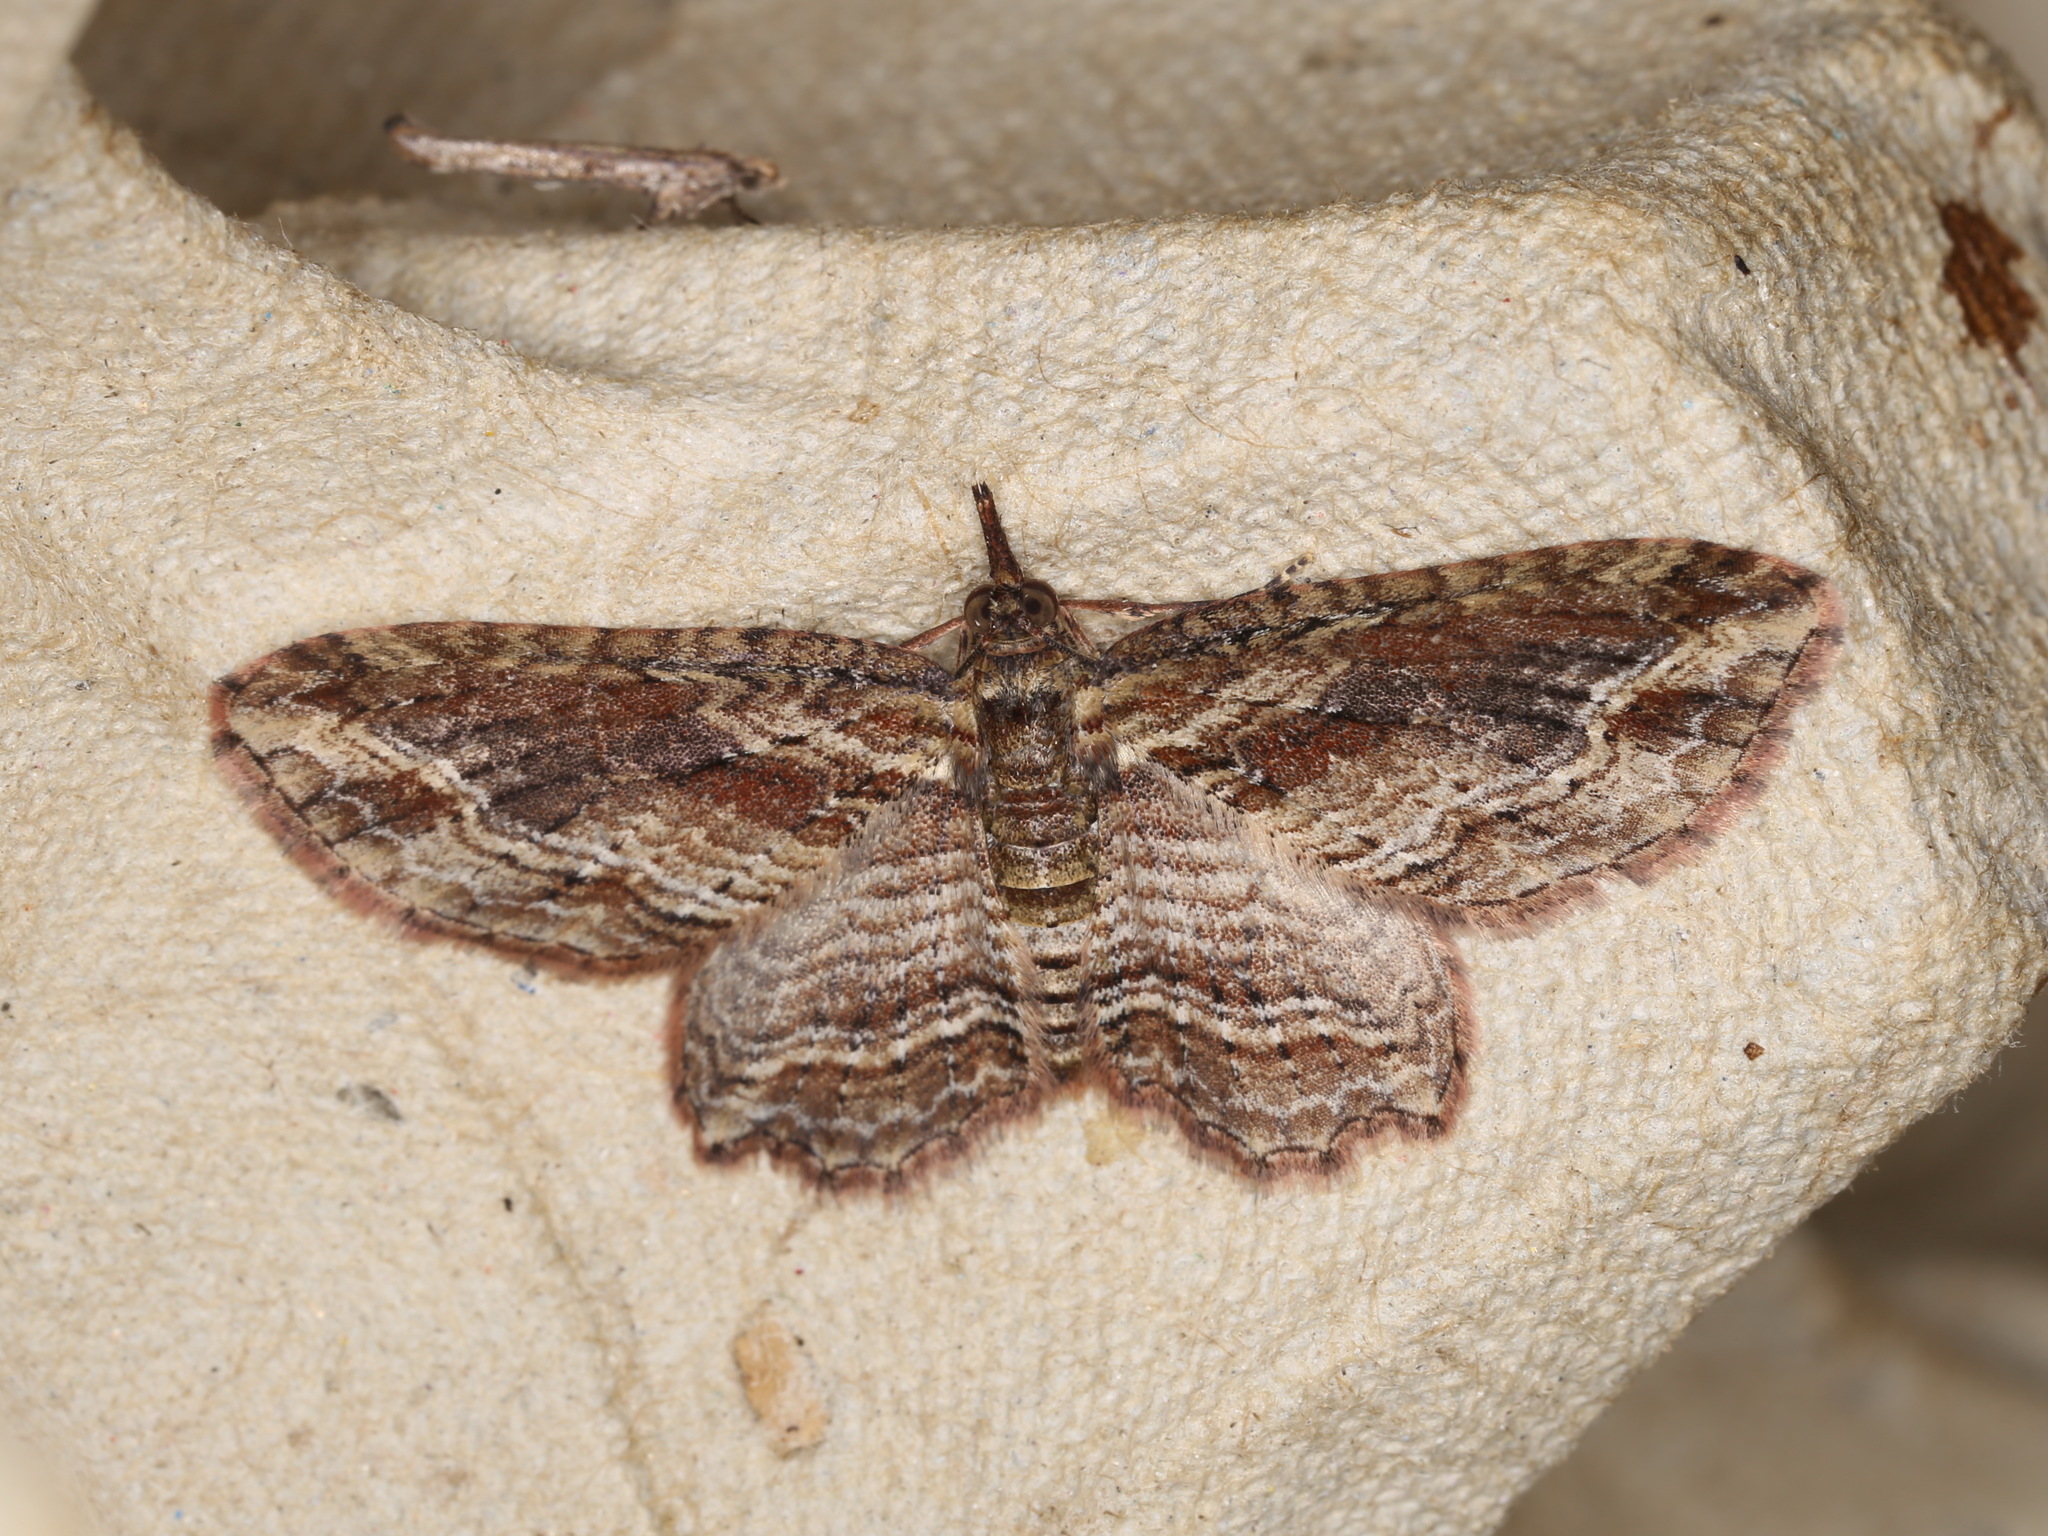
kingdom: Animalia
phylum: Arthropoda
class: Insecta
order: Lepidoptera
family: Geometridae
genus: Chloroclystis
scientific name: Chloroclystis filata
